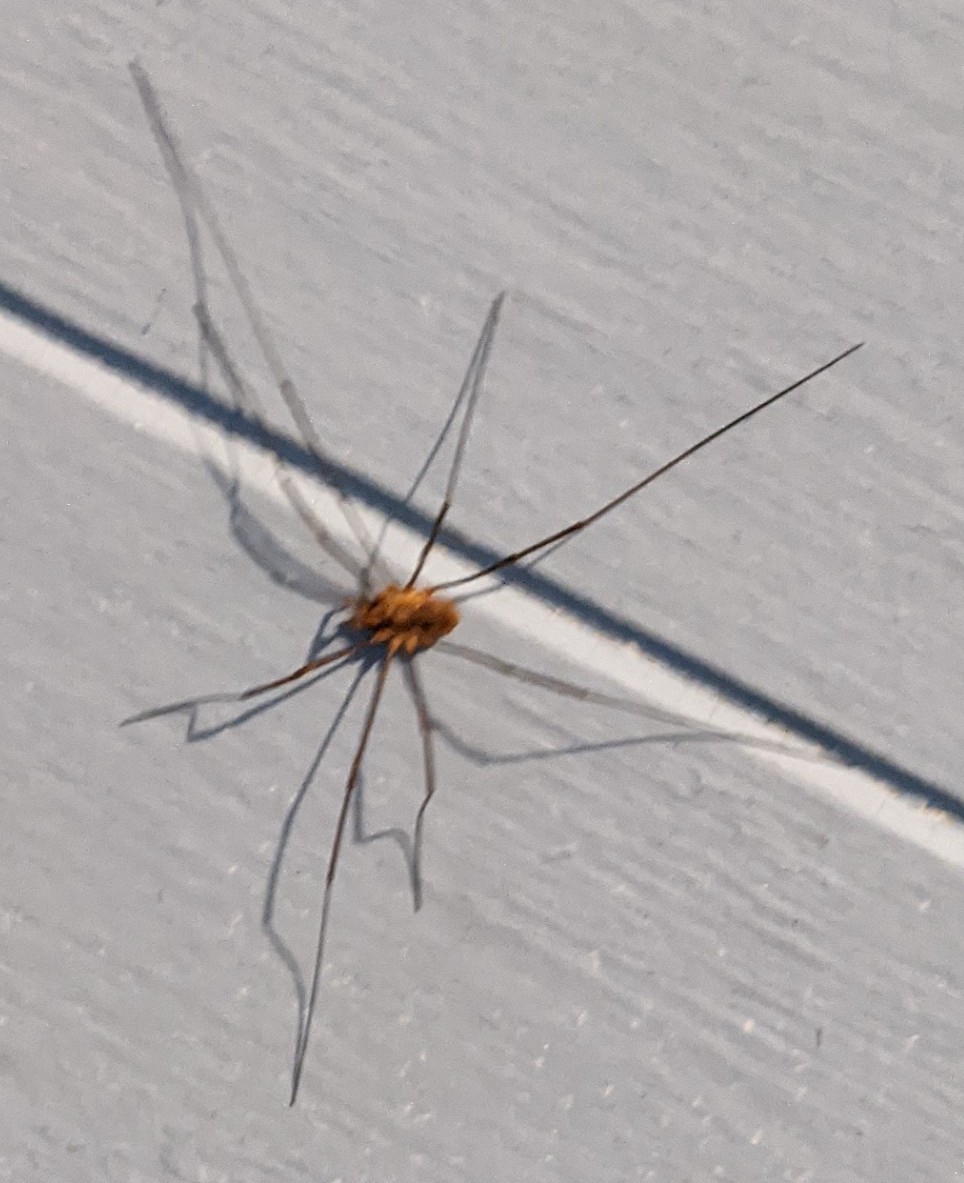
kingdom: Animalia
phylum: Arthropoda
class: Arachnida
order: Opiliones
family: Phalangiidae
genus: Phalangium
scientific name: Phalangium opilio
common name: Daddy longleg
